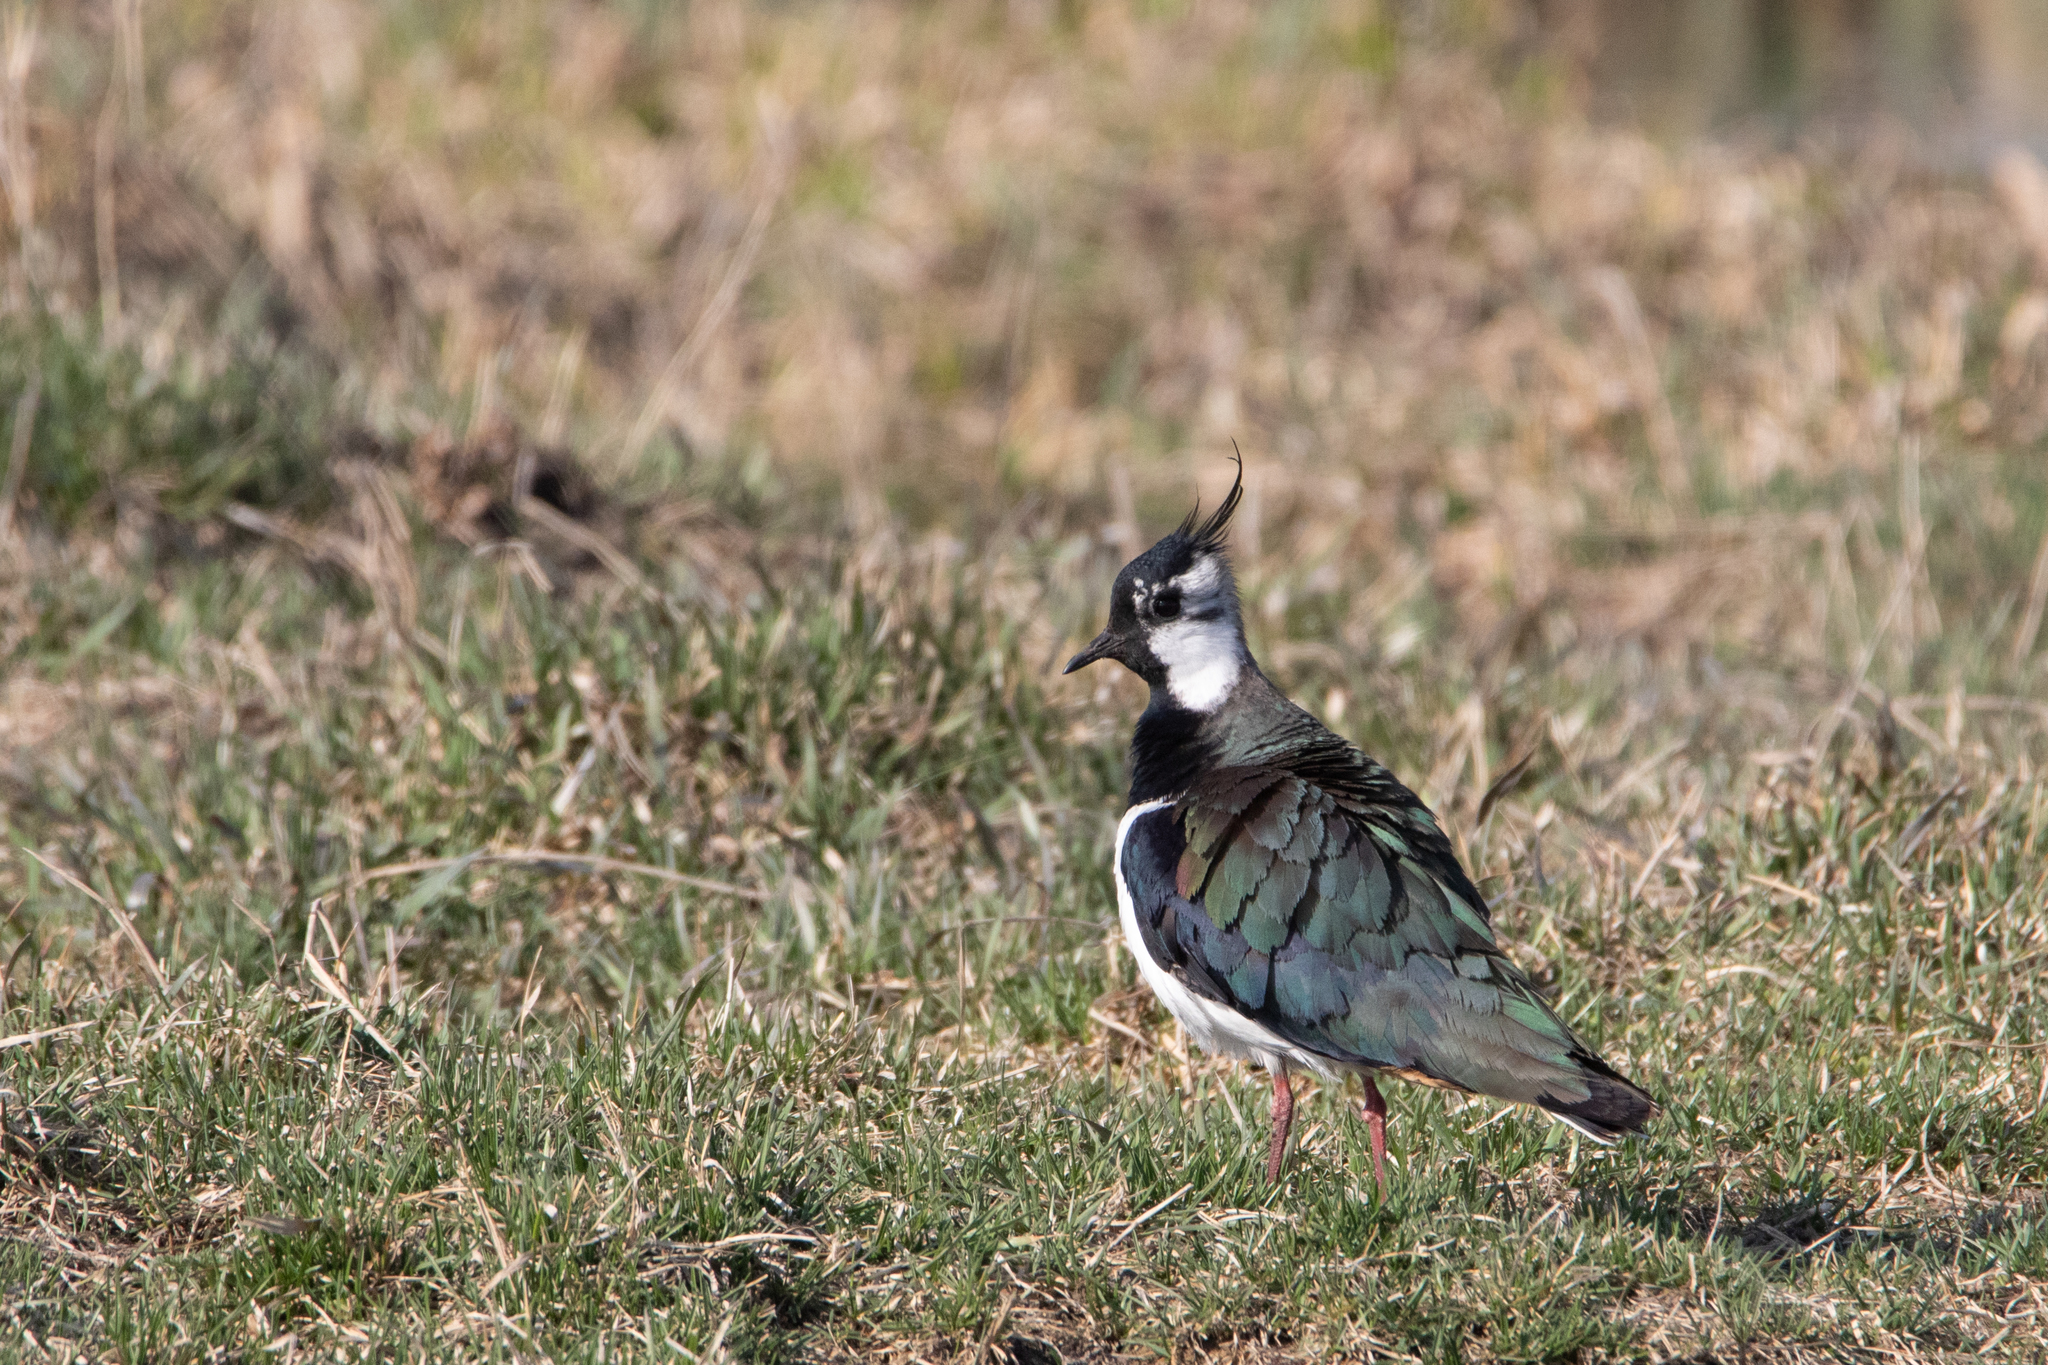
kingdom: Animalia
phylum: Chordata
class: Aves
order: Charadriiformes
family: Charadriidae
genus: Vanellus
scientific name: Vanellus vanellus
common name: Northern lapwing
